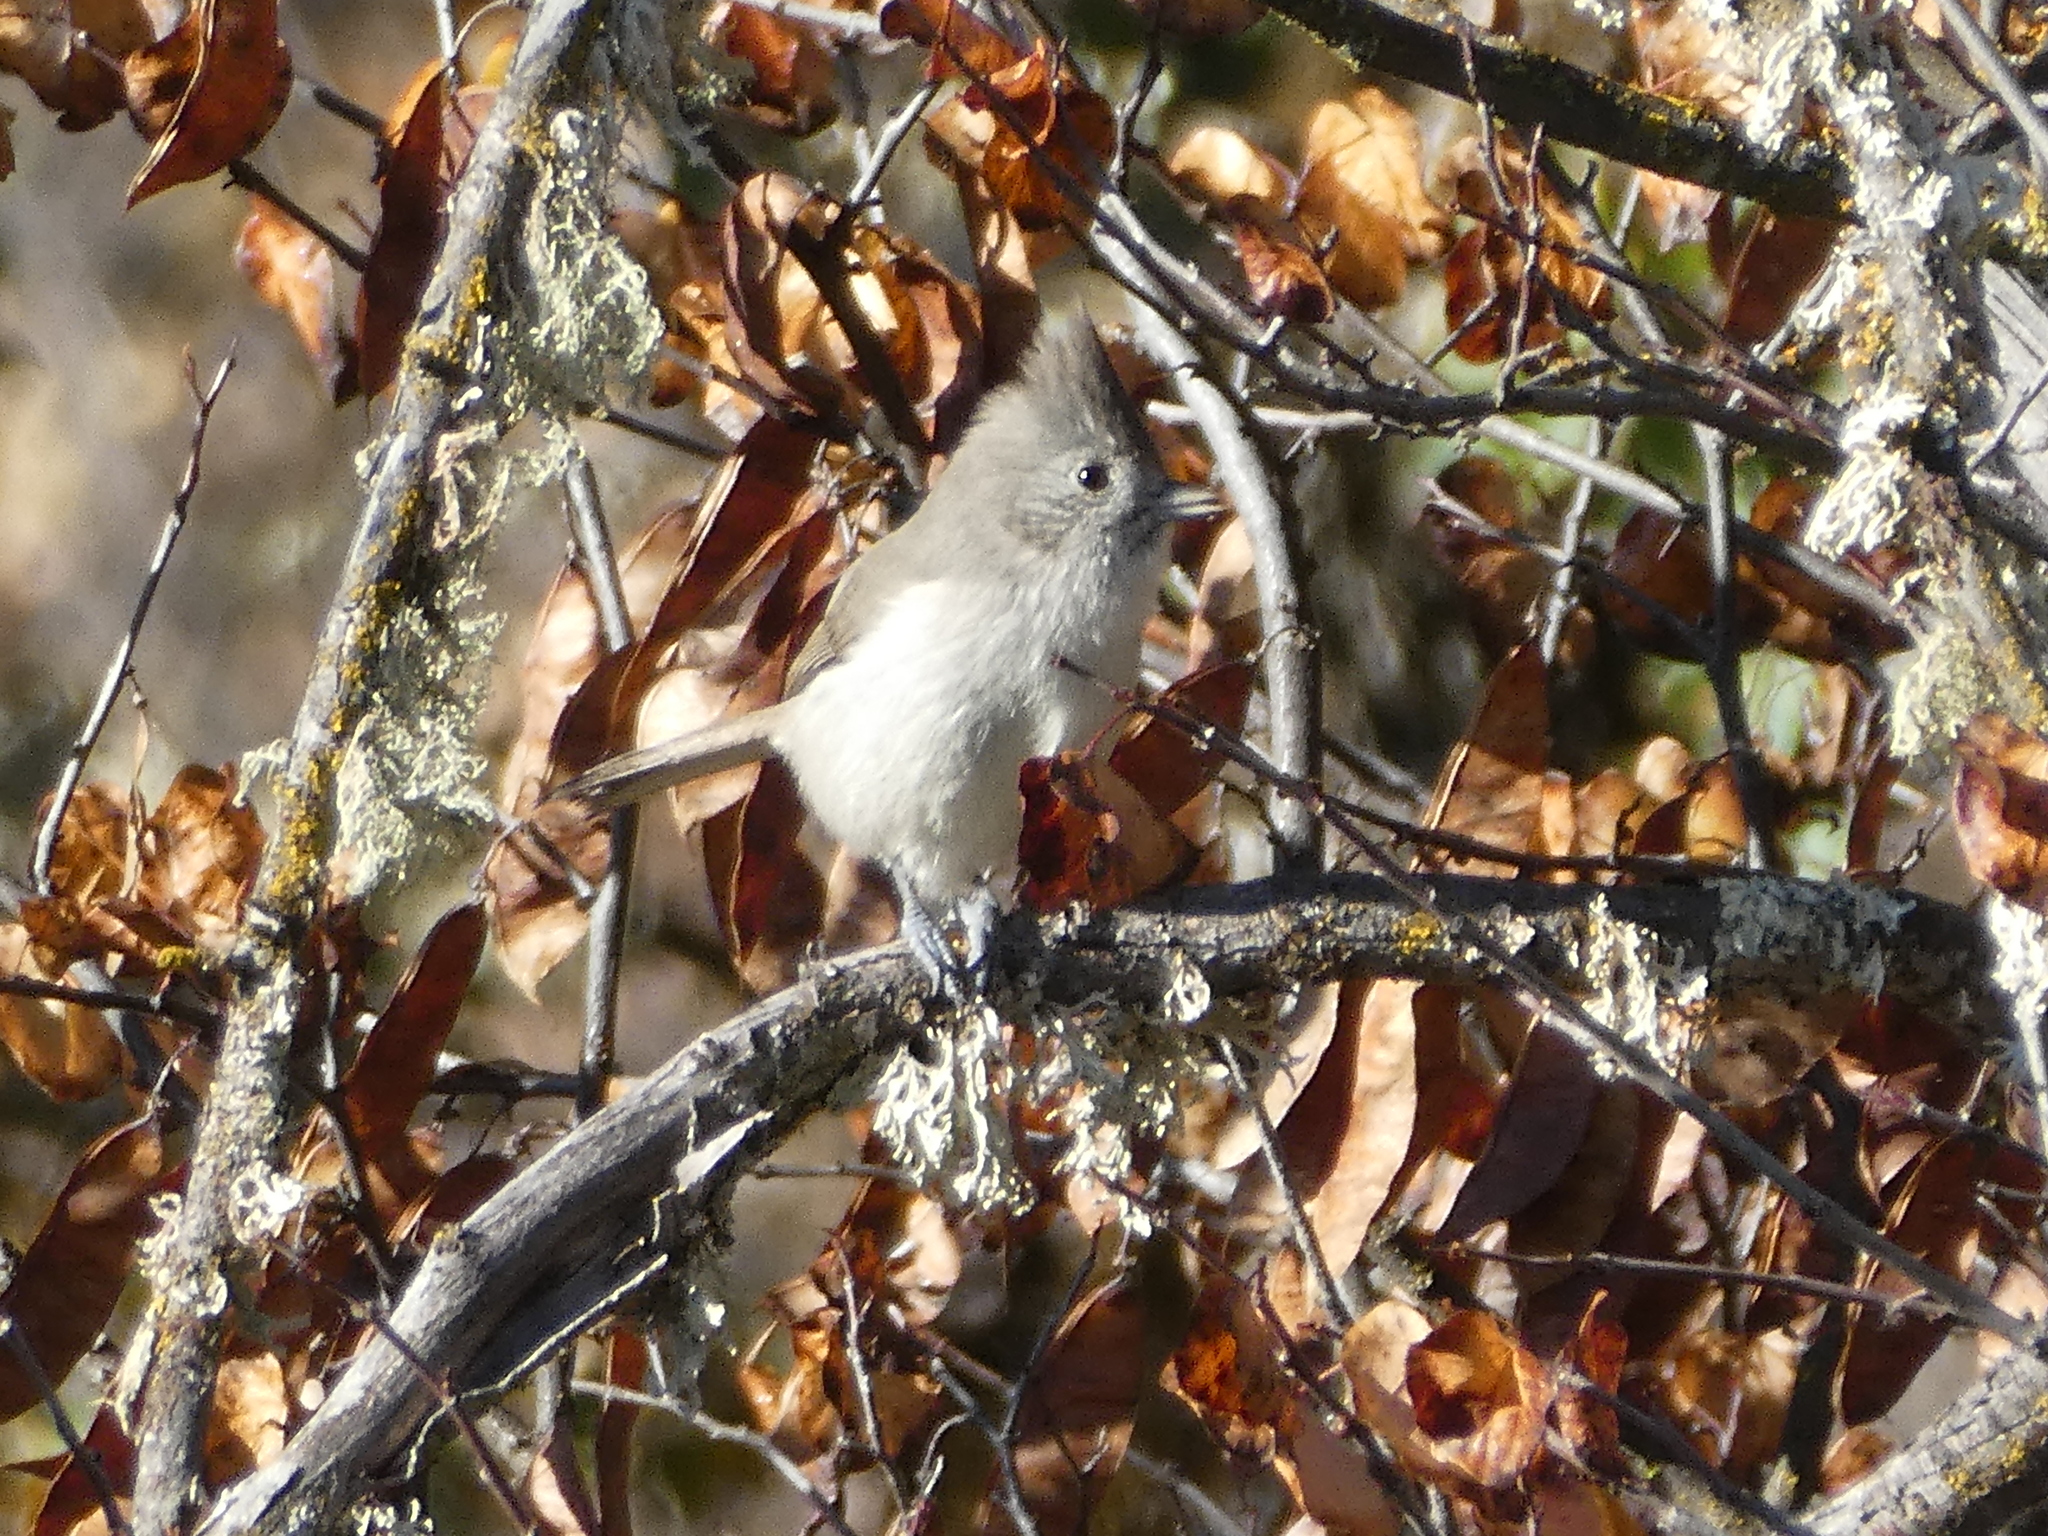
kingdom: Animalia
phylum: Chordata
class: Aves
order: Passeriformes
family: Paridae
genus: Baeolophus
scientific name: Baeolophus inornatus
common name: Oak titmouse
